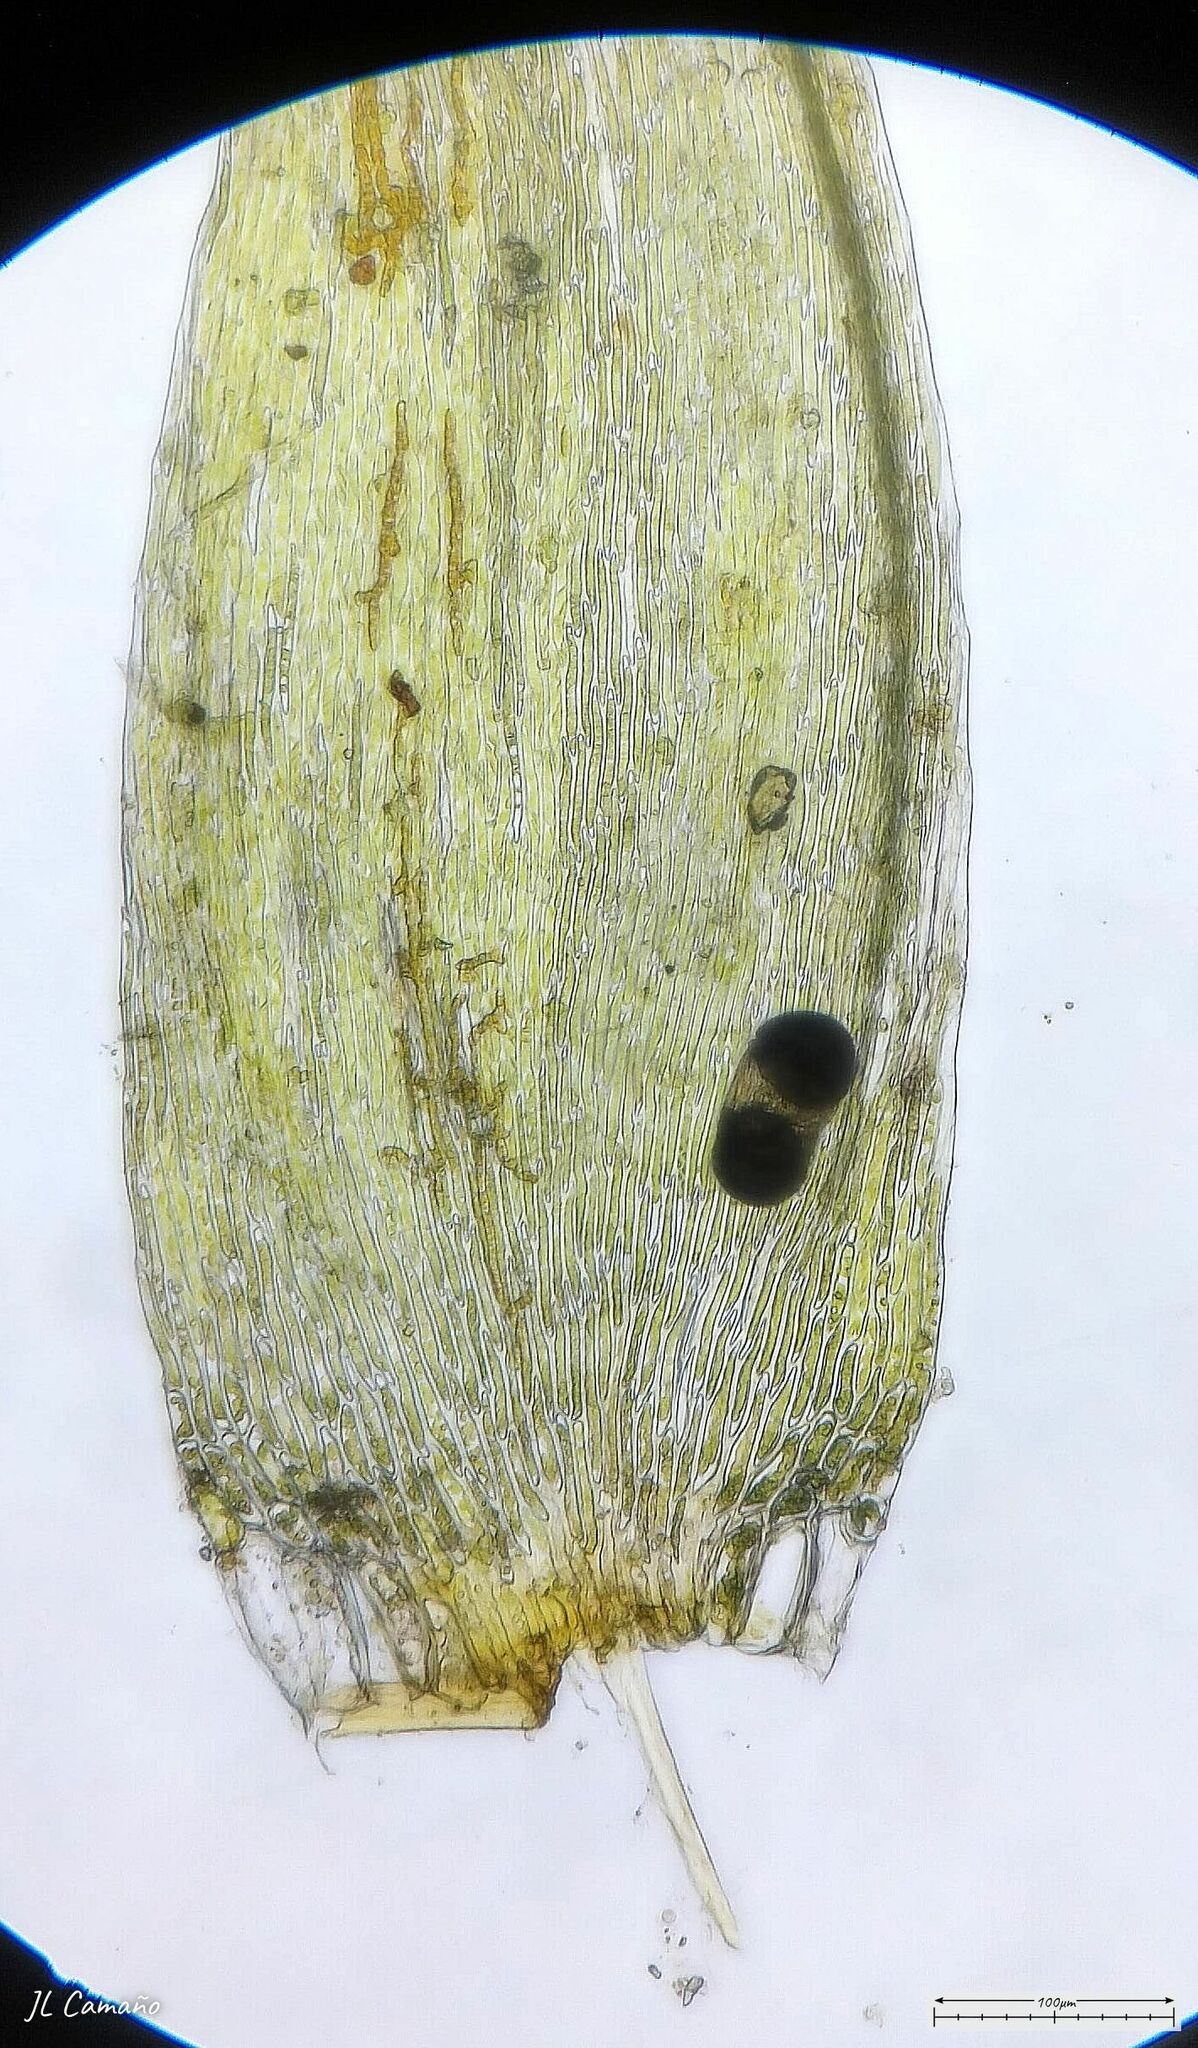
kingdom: Plantae
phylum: Bryophyta
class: Bryopsida
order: Hypnales
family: Sematophyllaceae
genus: Sematophyllum
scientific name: Sematophyllum substrumulosum
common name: Bark signal-moss
